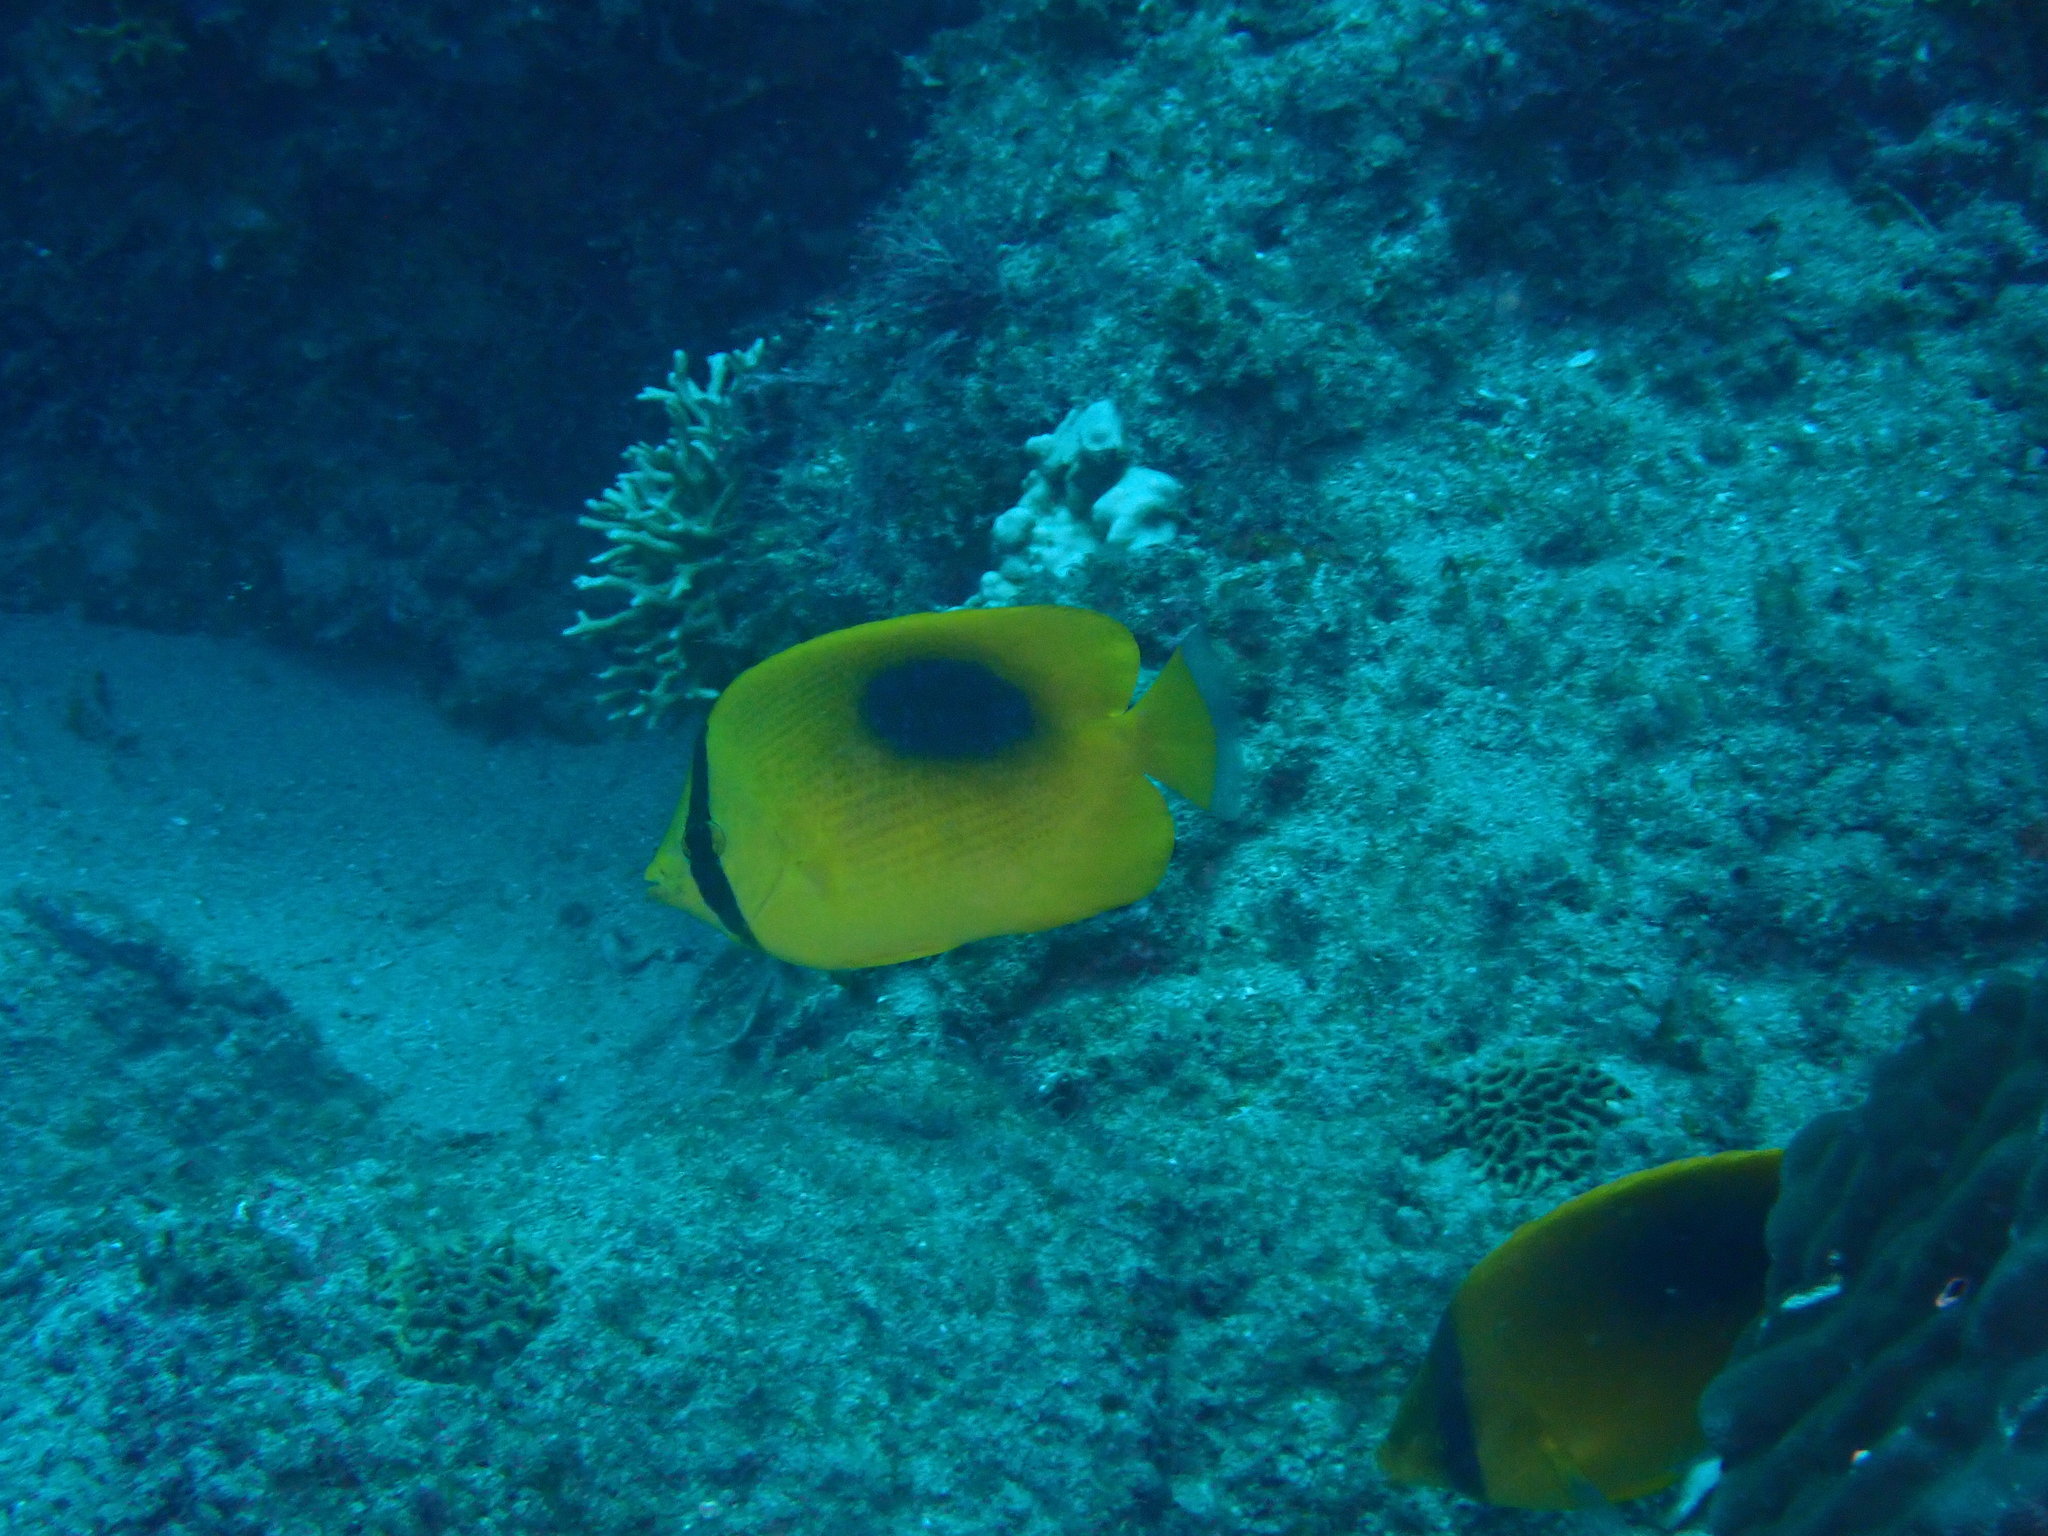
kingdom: Animalia
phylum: Chordata
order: Perciformes
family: Chaetodontidae
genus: Chaetodon
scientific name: Chaetodon speculum
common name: Mirror butterflyfish
